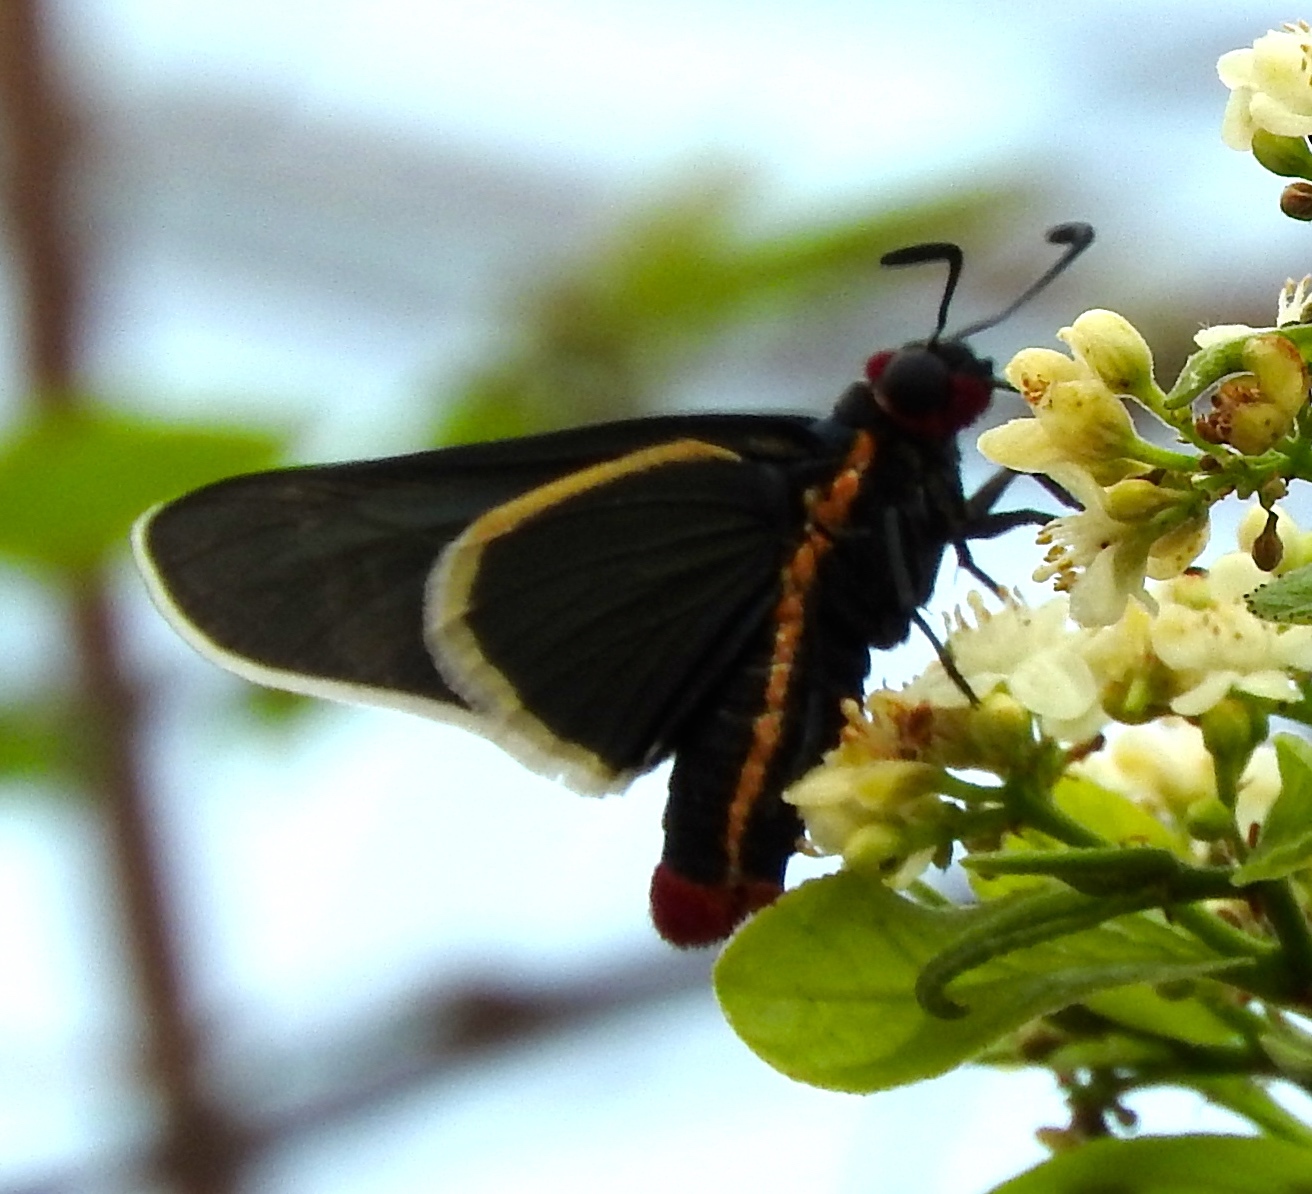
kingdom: Animalia
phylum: Arthropoda
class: Insecta
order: Lepidoptera
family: Hesperiidae
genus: Mysoria
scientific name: Mysoria affinis
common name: Red-collared firetip
